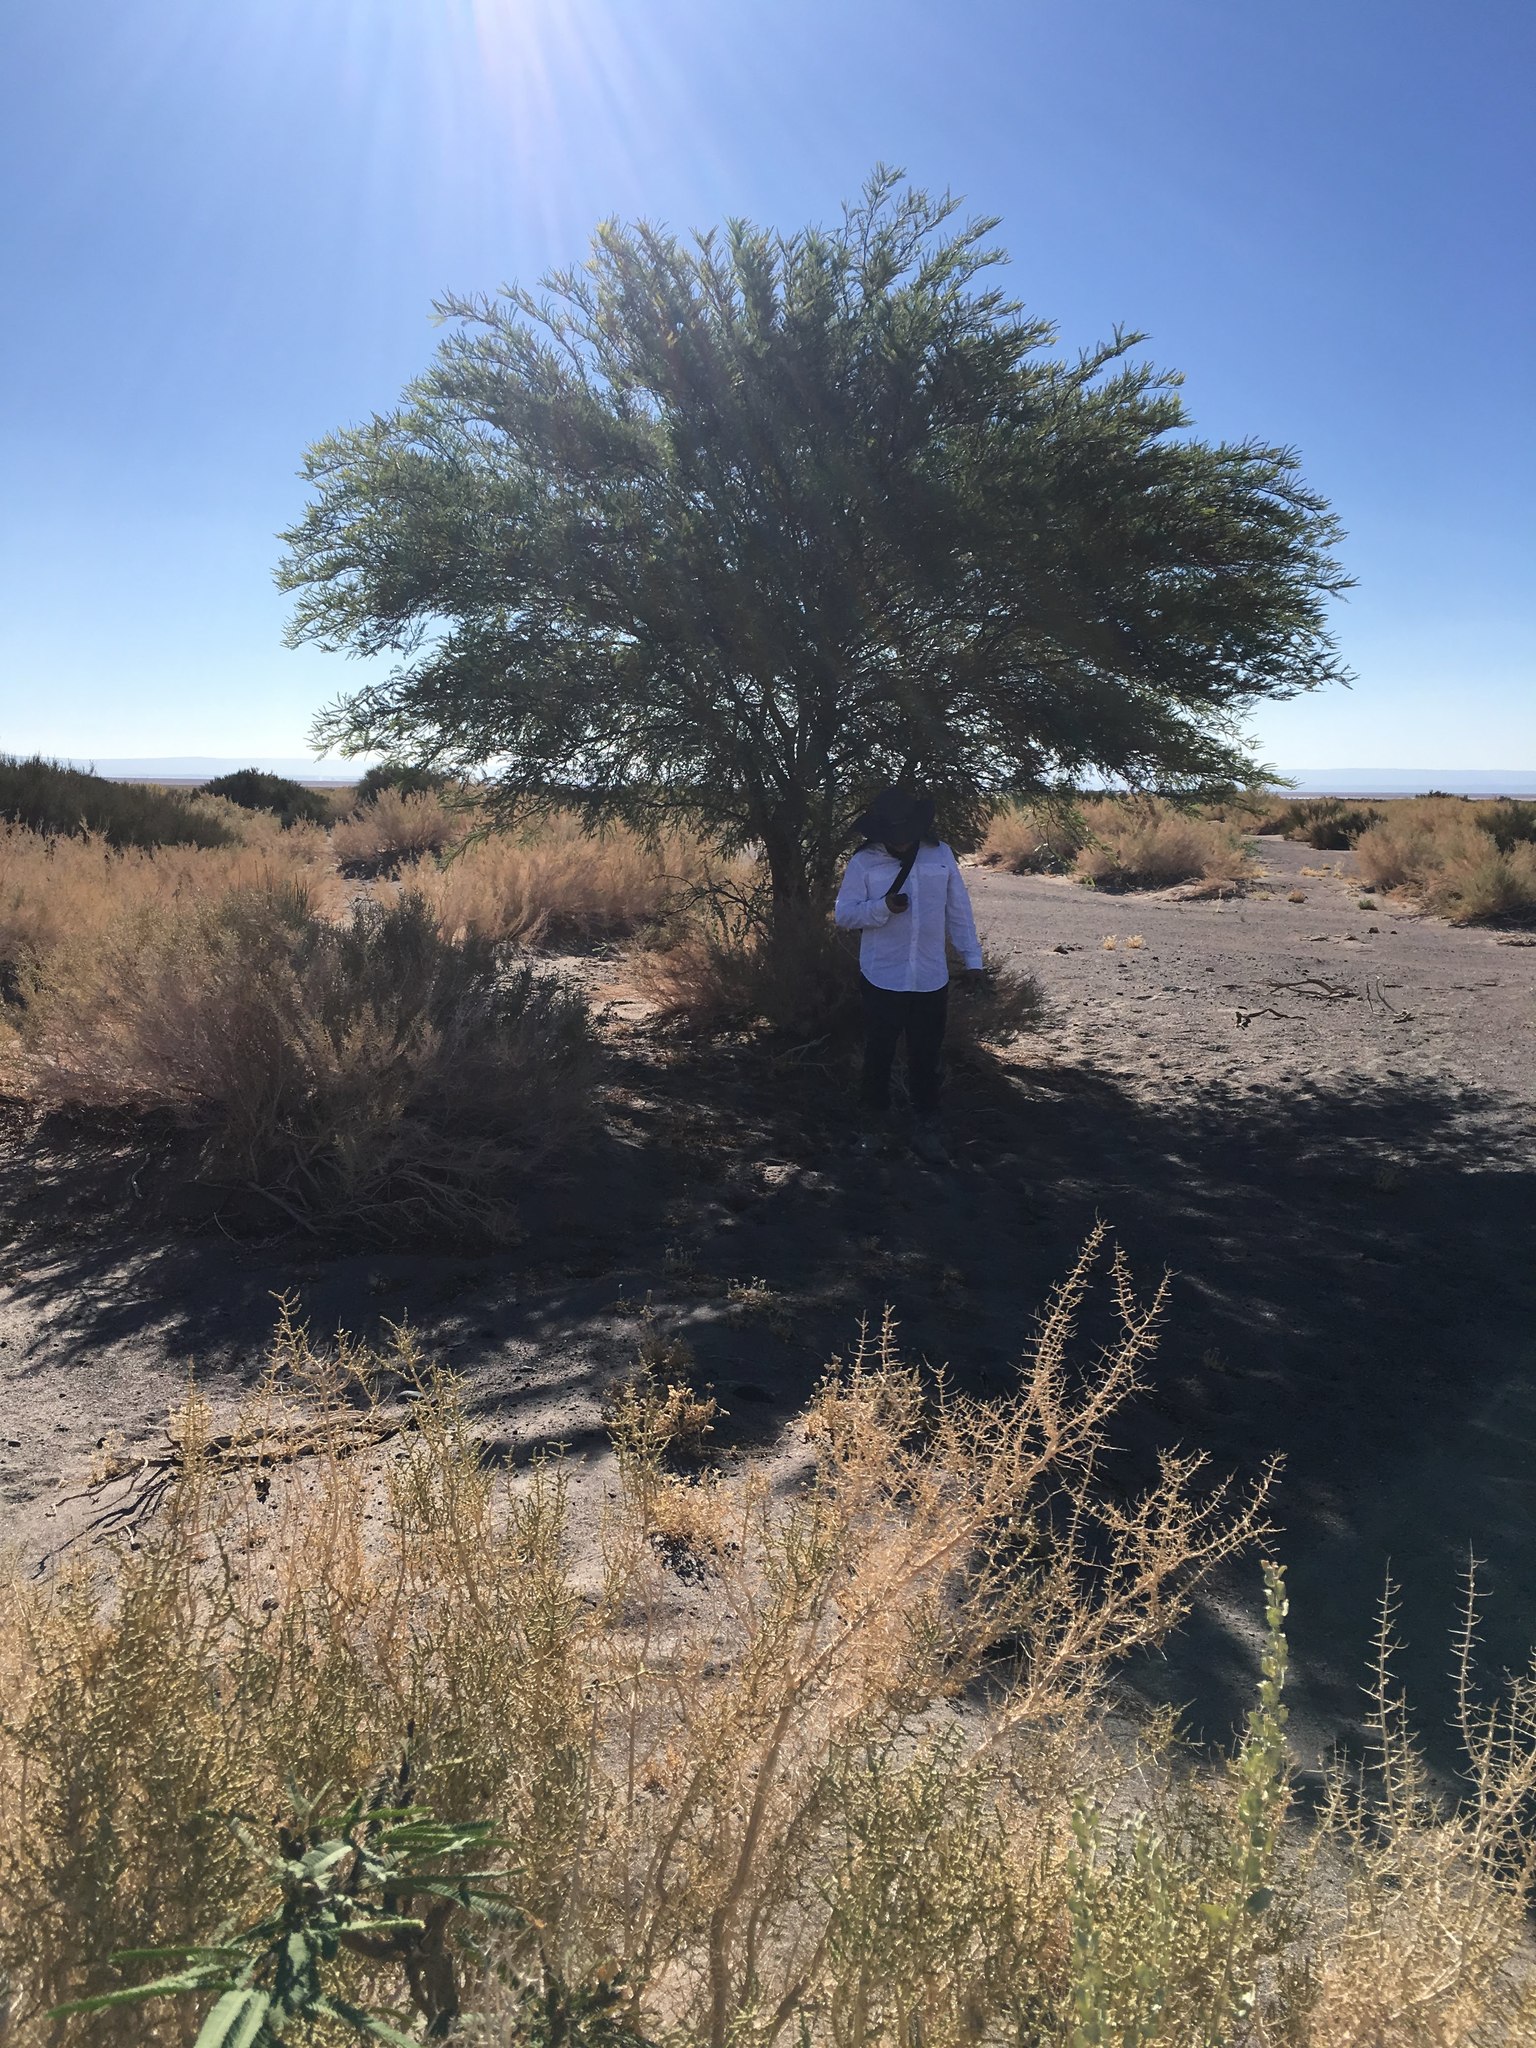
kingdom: Plantae
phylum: Tracheophyta
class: Magnoliopsida
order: Fabales
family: Fabaceae
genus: Prosopis
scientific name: Prosopis alba
